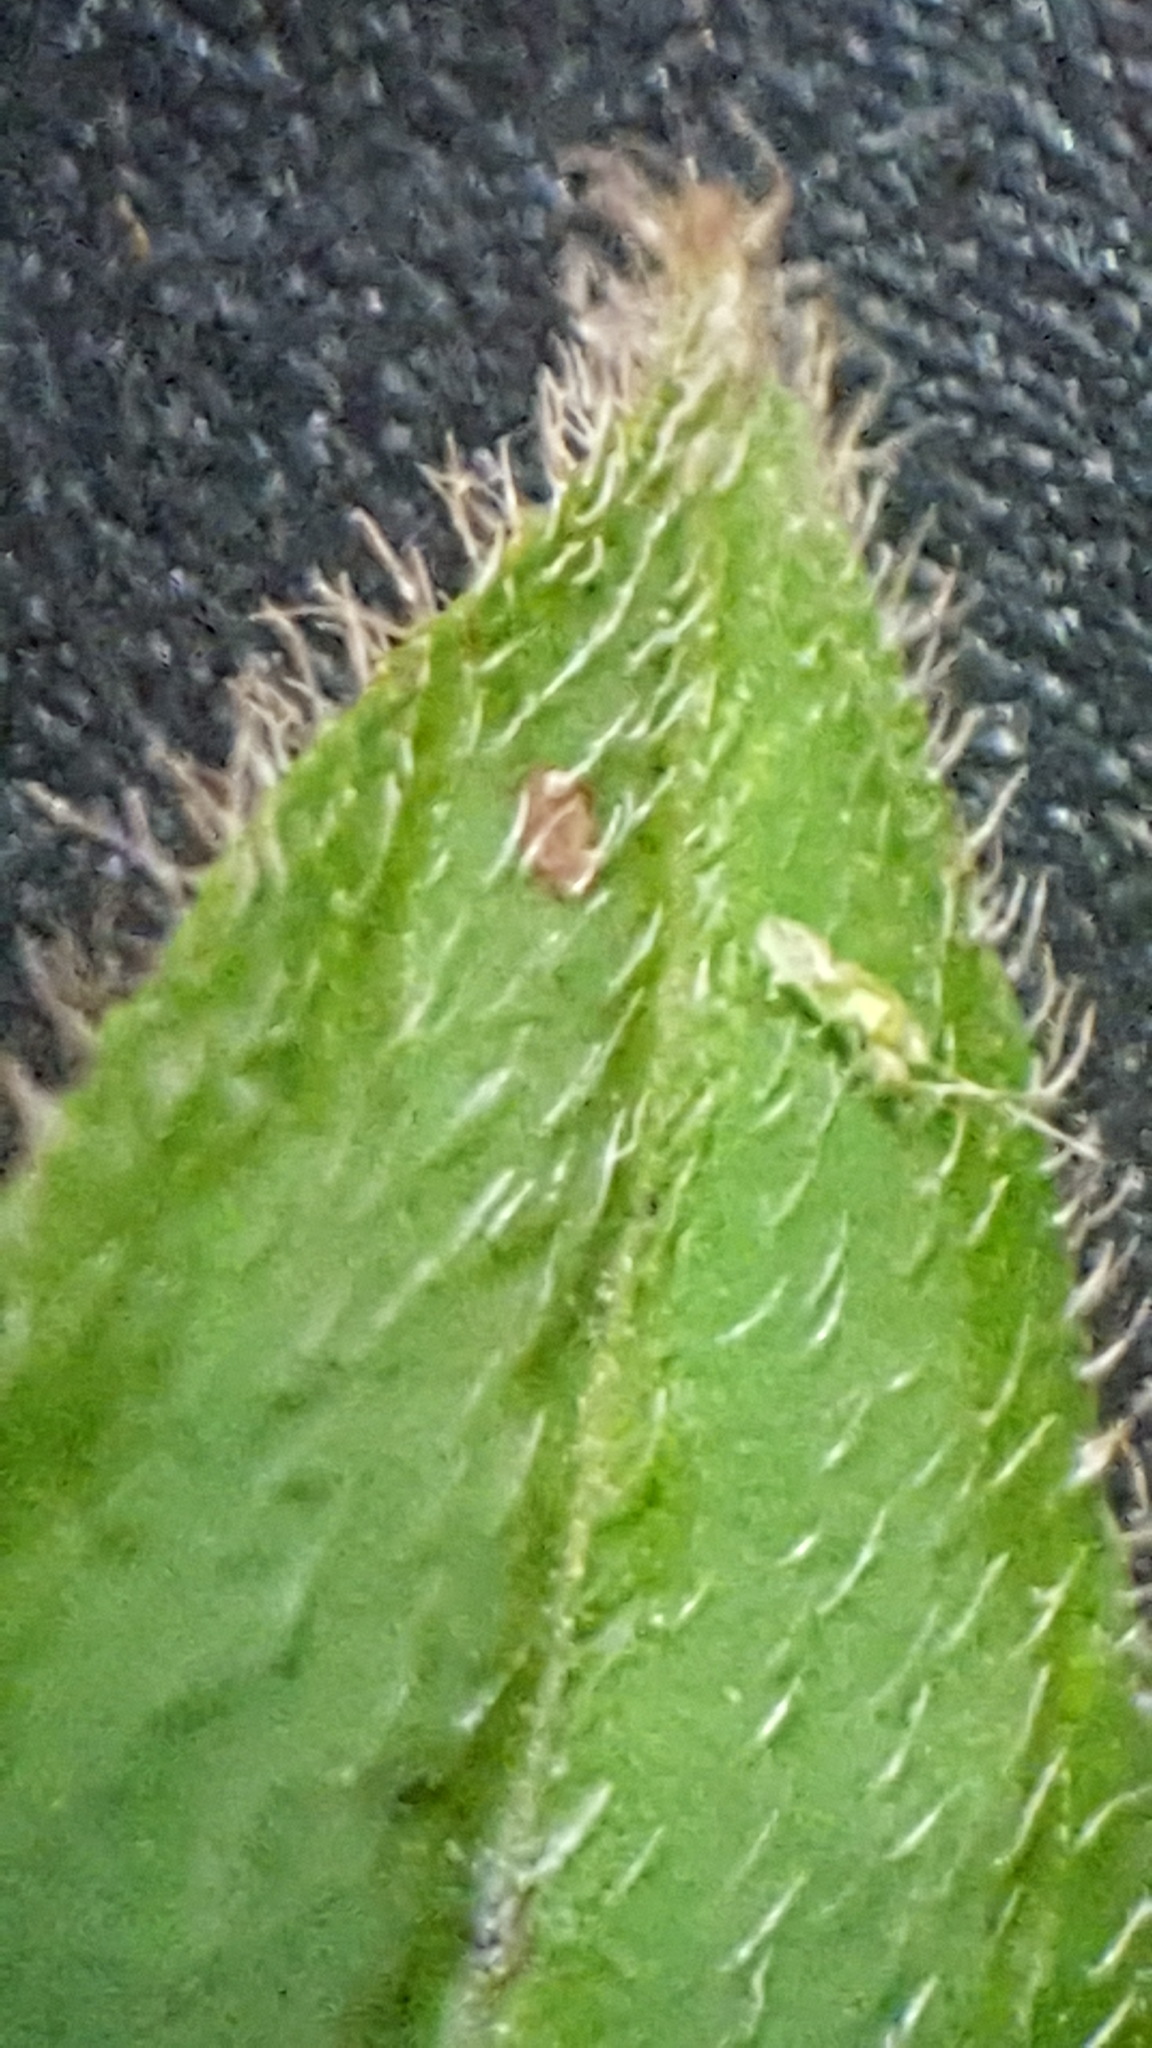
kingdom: Plantae
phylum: Tracheophyta
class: Magnoliopsida
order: Fabales
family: Fabaceae
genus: Desmodium
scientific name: Desmodium cuspidatum
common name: Big tick trefoil
